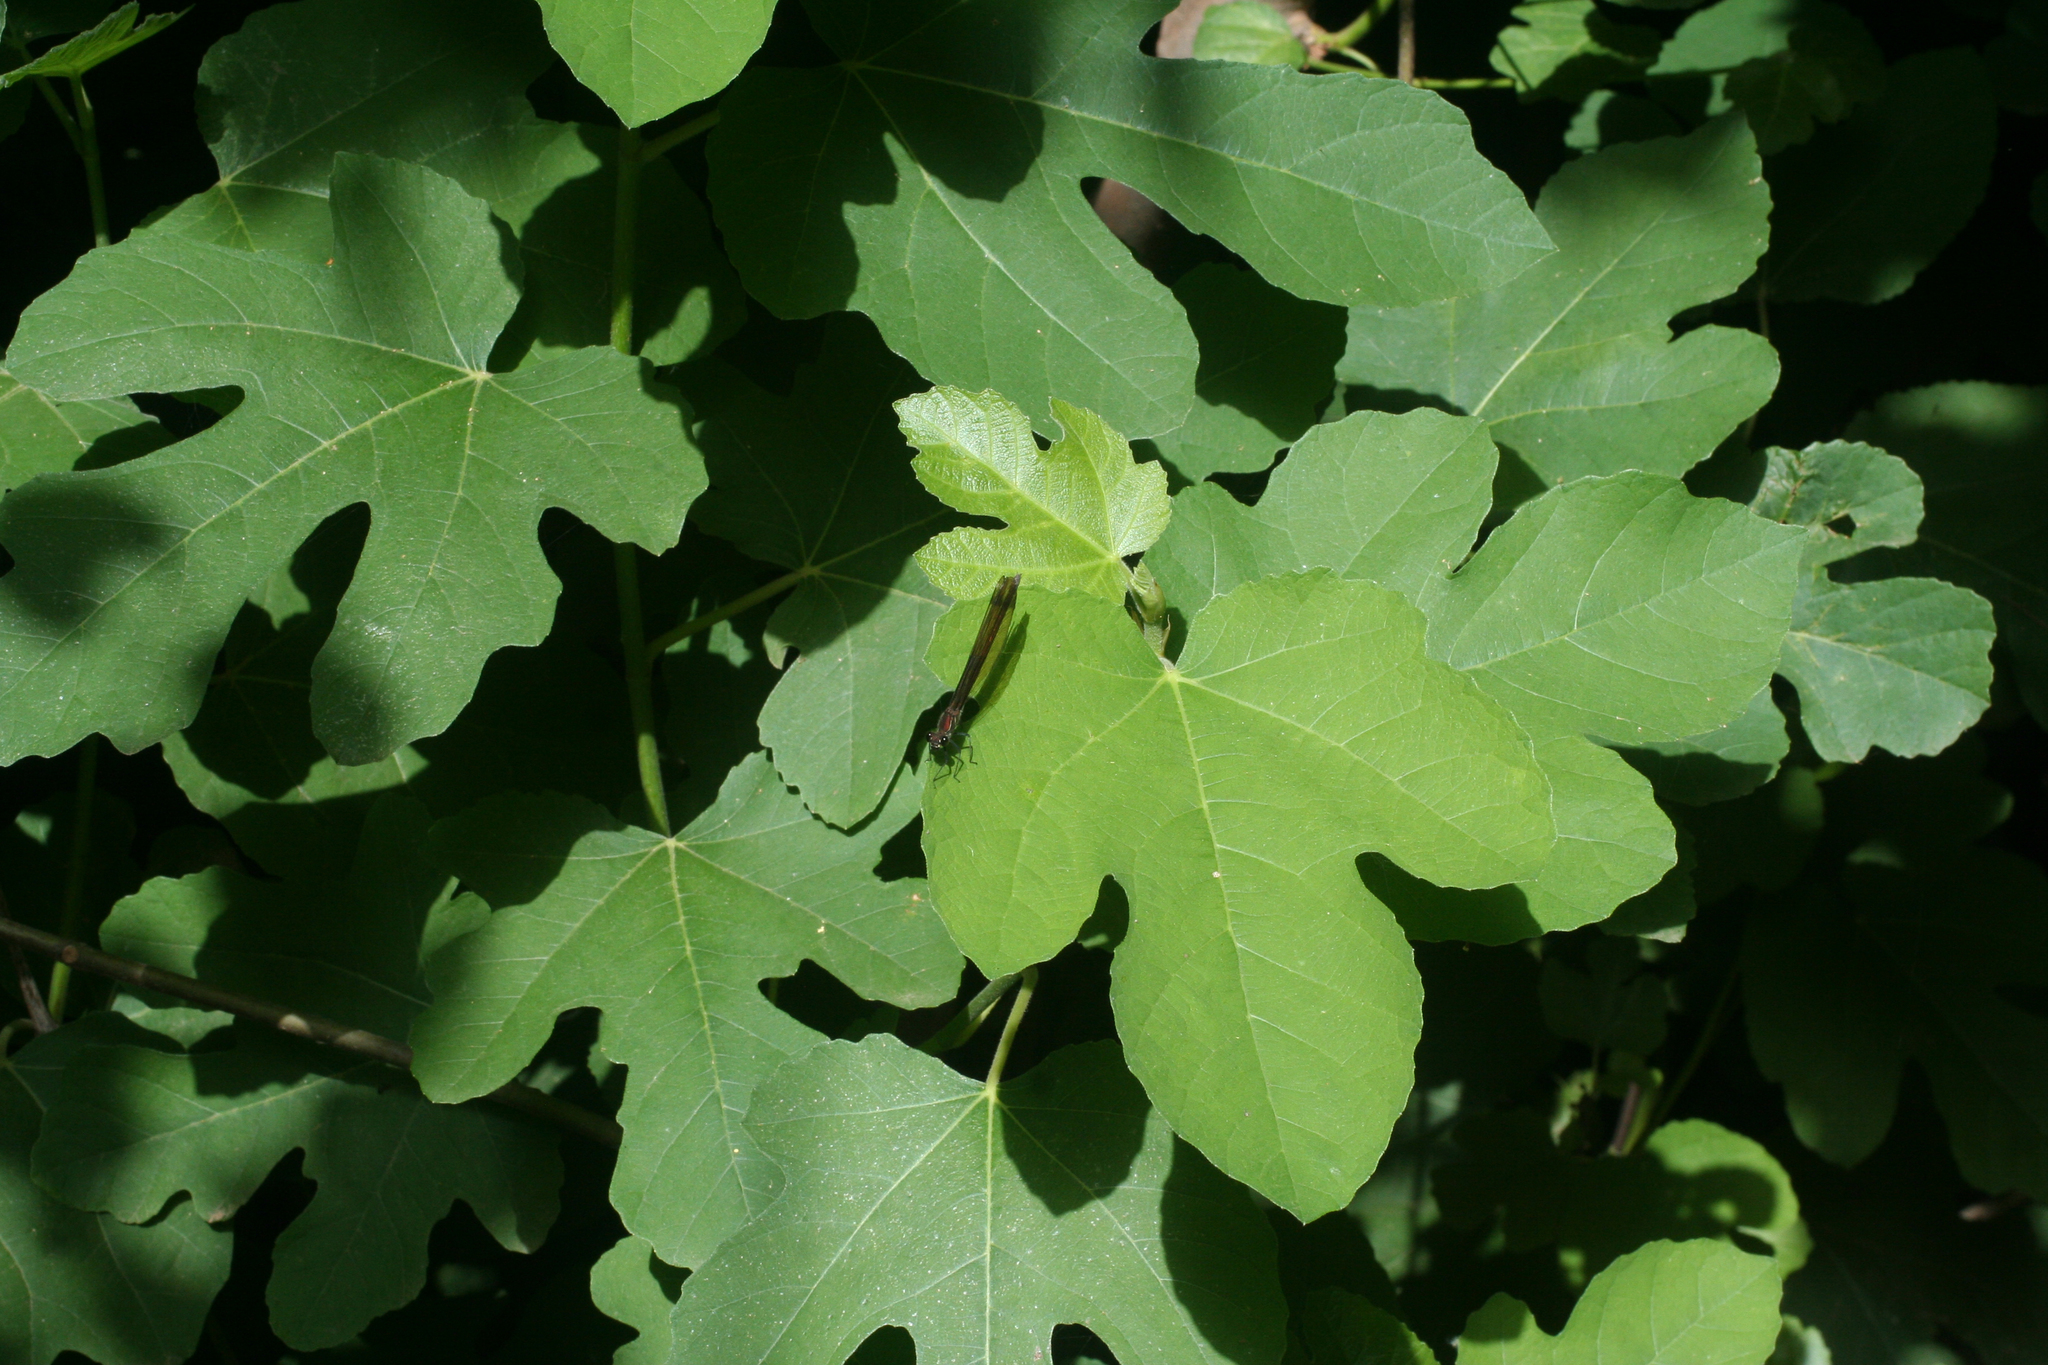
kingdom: Plantae
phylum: Tracheophyta
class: Magnoliopsida
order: Rosales
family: Moraceae
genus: Ficus
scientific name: Ficus carica
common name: Fig
